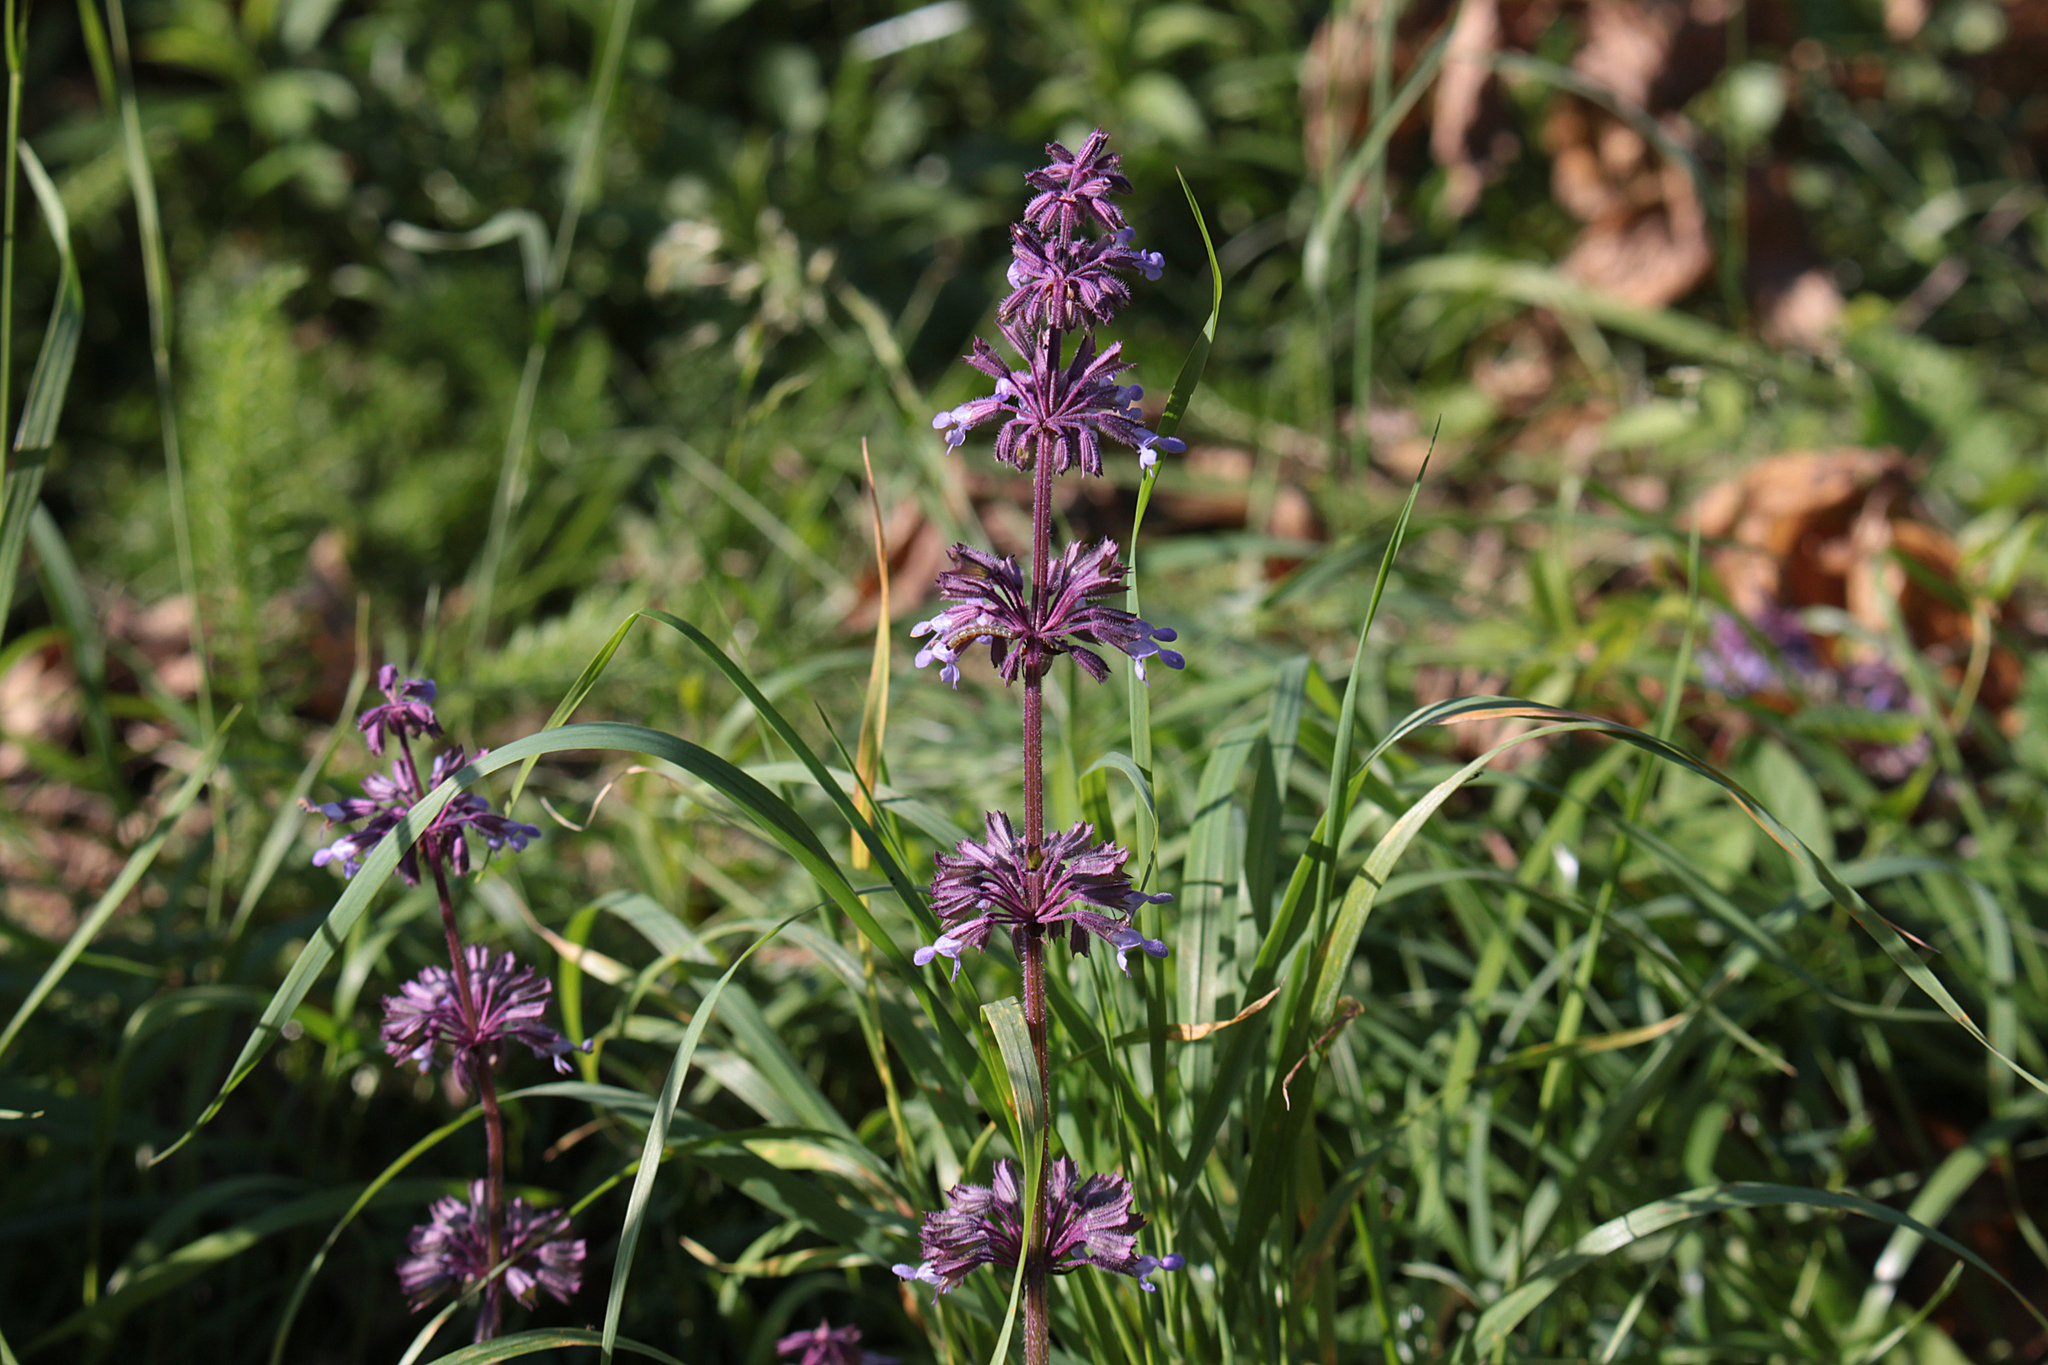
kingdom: Plantae
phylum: Tracheophyta
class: Magnoliopsida
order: Lamiales
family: Lamiaceae
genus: Salvia
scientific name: Salvia verticillata
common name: Whorled clary
